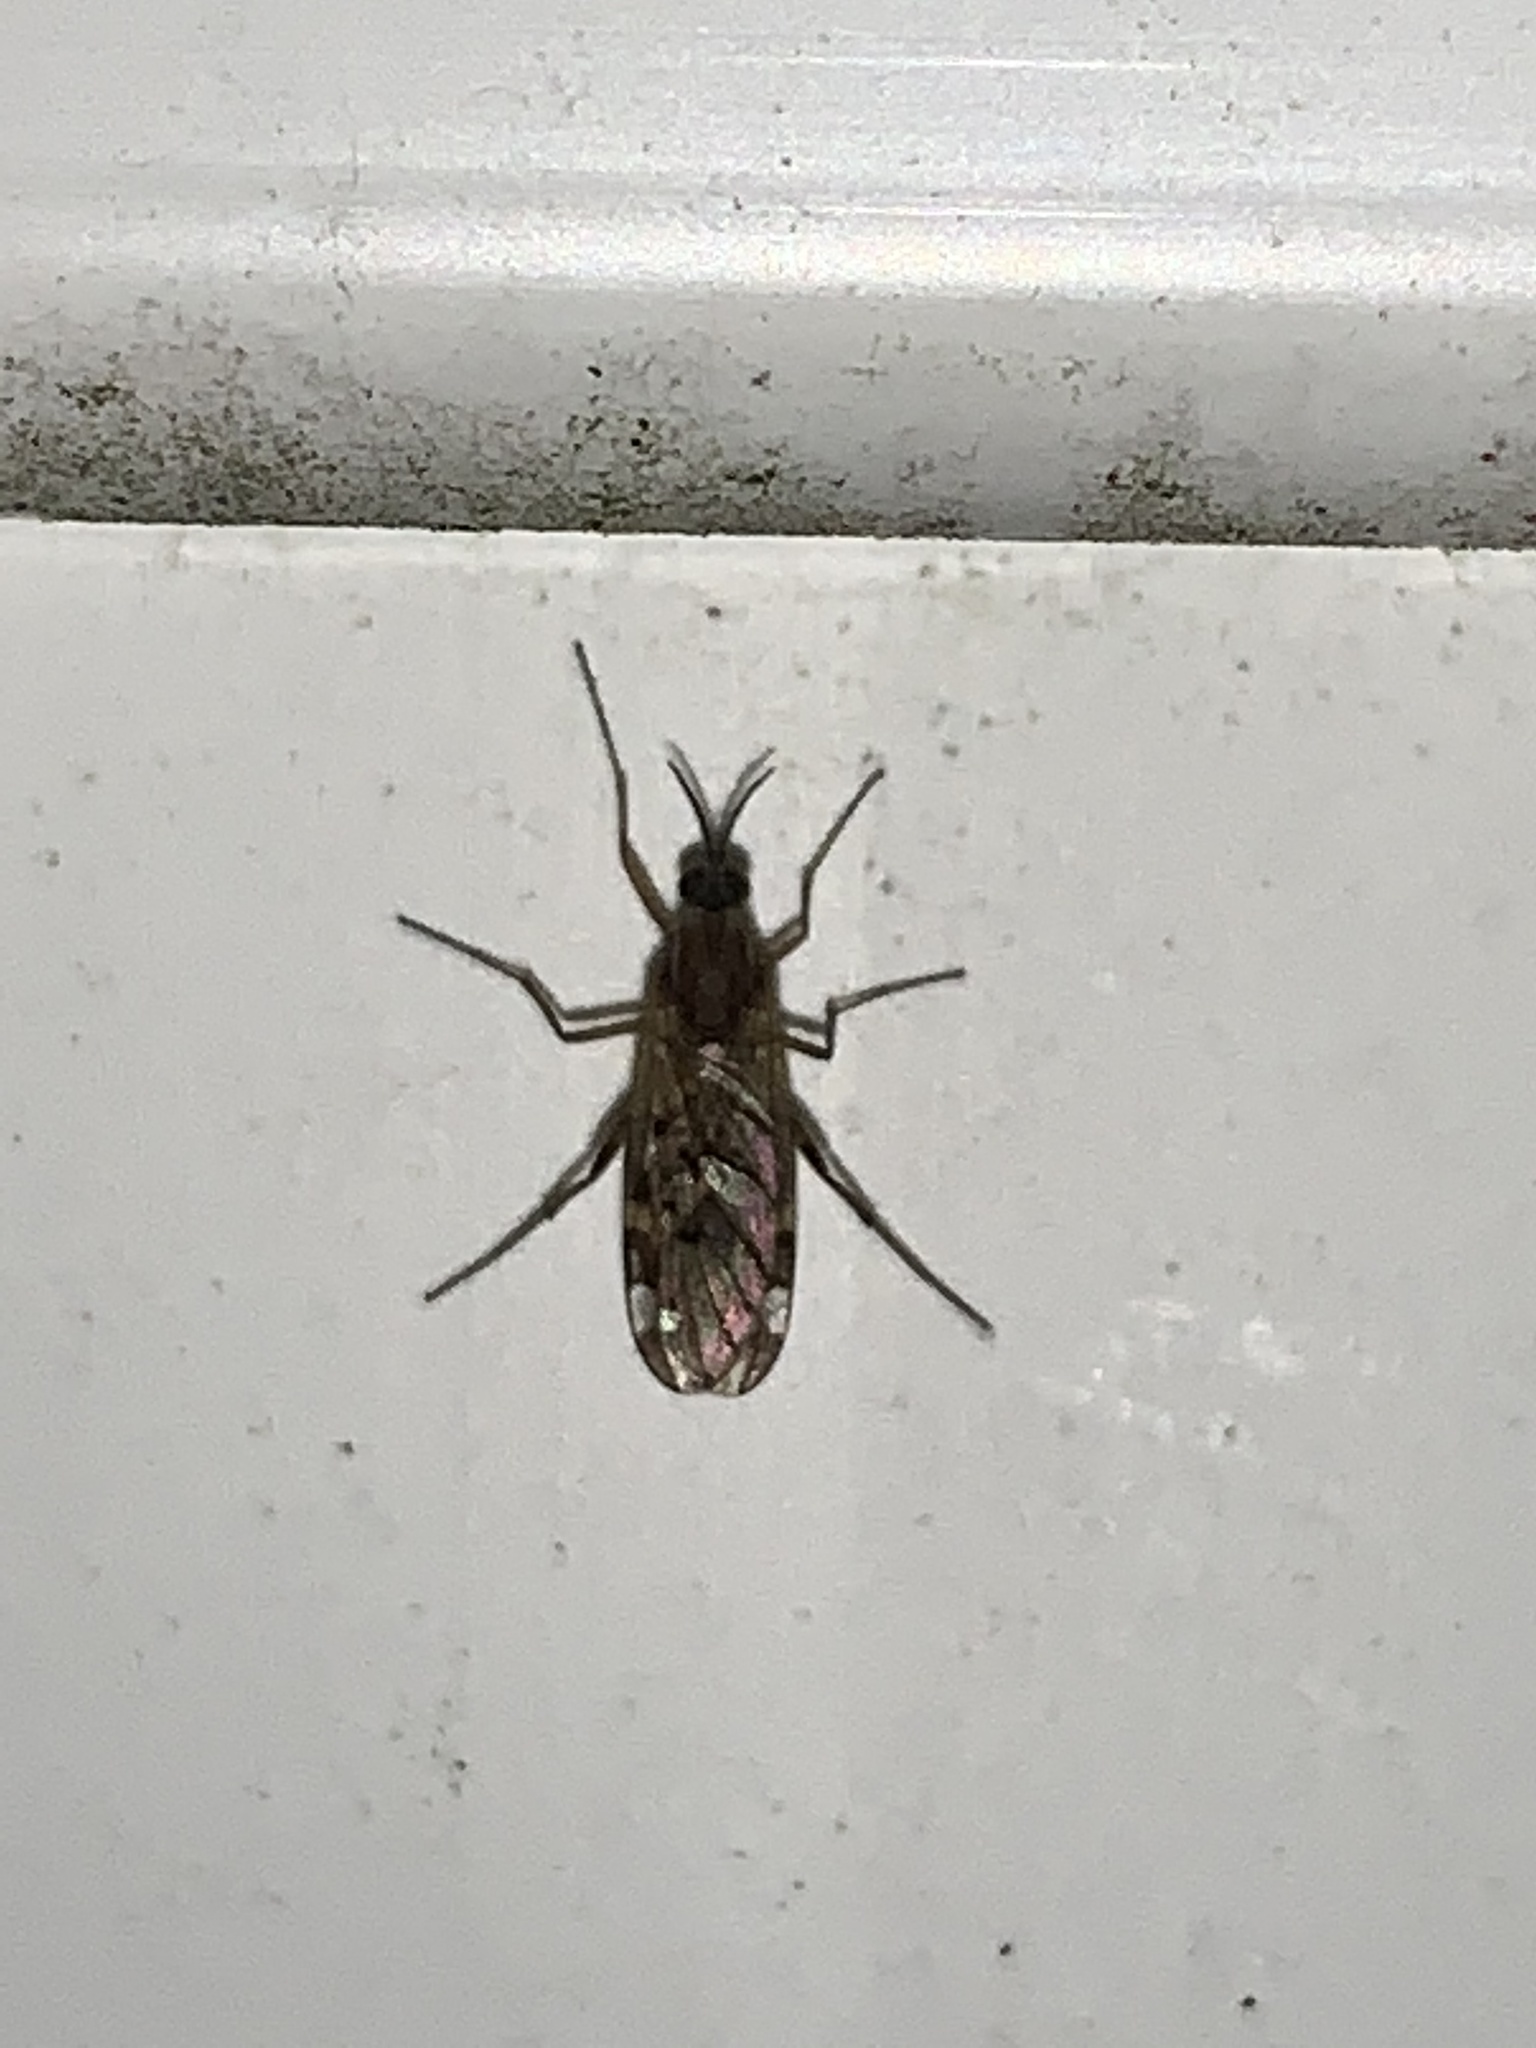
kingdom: Animalia
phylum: Arthropoda
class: Insecta
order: Diptera
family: Anisopodidae
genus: Sylvicola
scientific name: Sylvicola alternata
